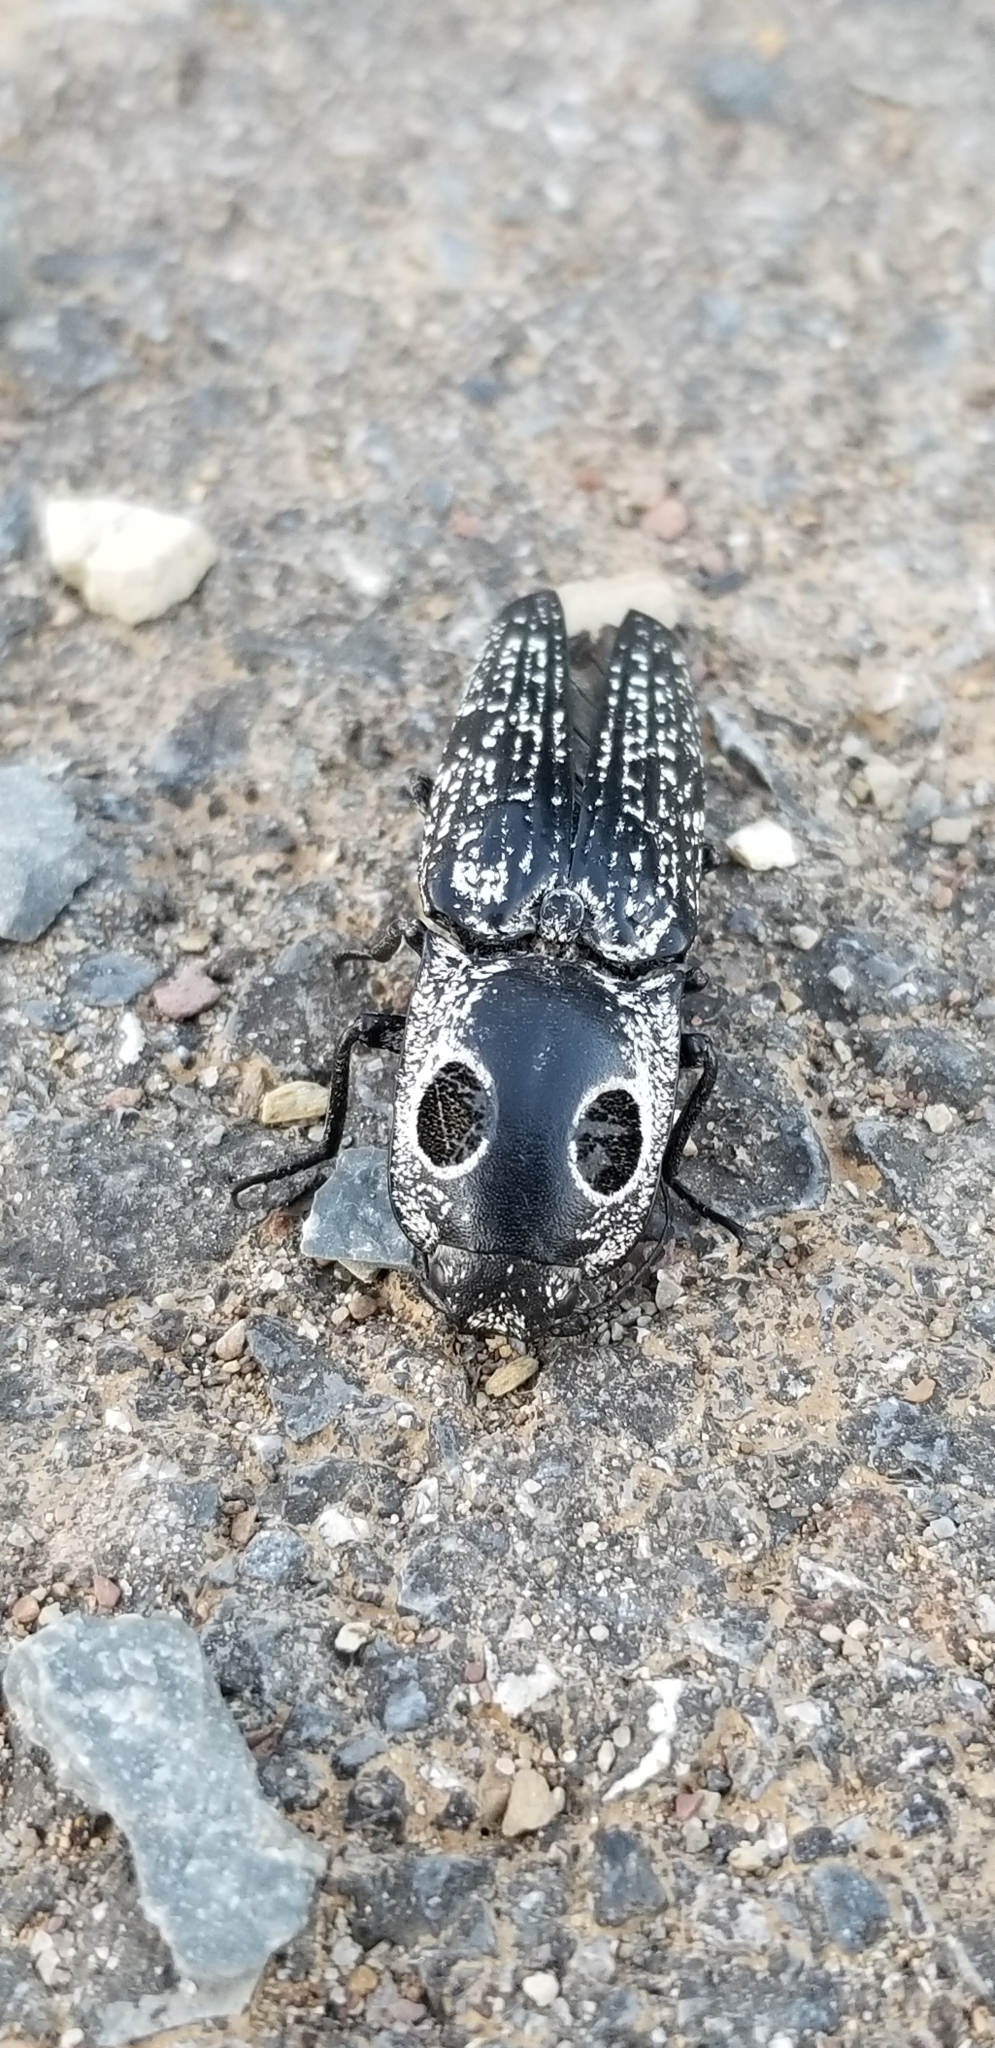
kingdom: Animalia
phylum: Arthropoda
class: Insecta
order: Coleoptera
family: Elateridae
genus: Alaus
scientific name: Alaus oculatus
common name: Eastern eyed click beetle
